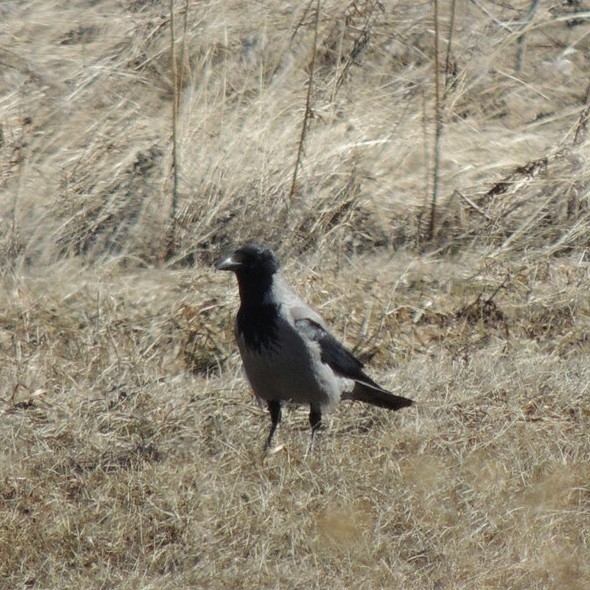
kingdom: Animalia
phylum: Chordata
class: Aves
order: Passeriformes
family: Corvidae
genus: Corvus
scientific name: Corvus cornix
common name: Hooded crow
